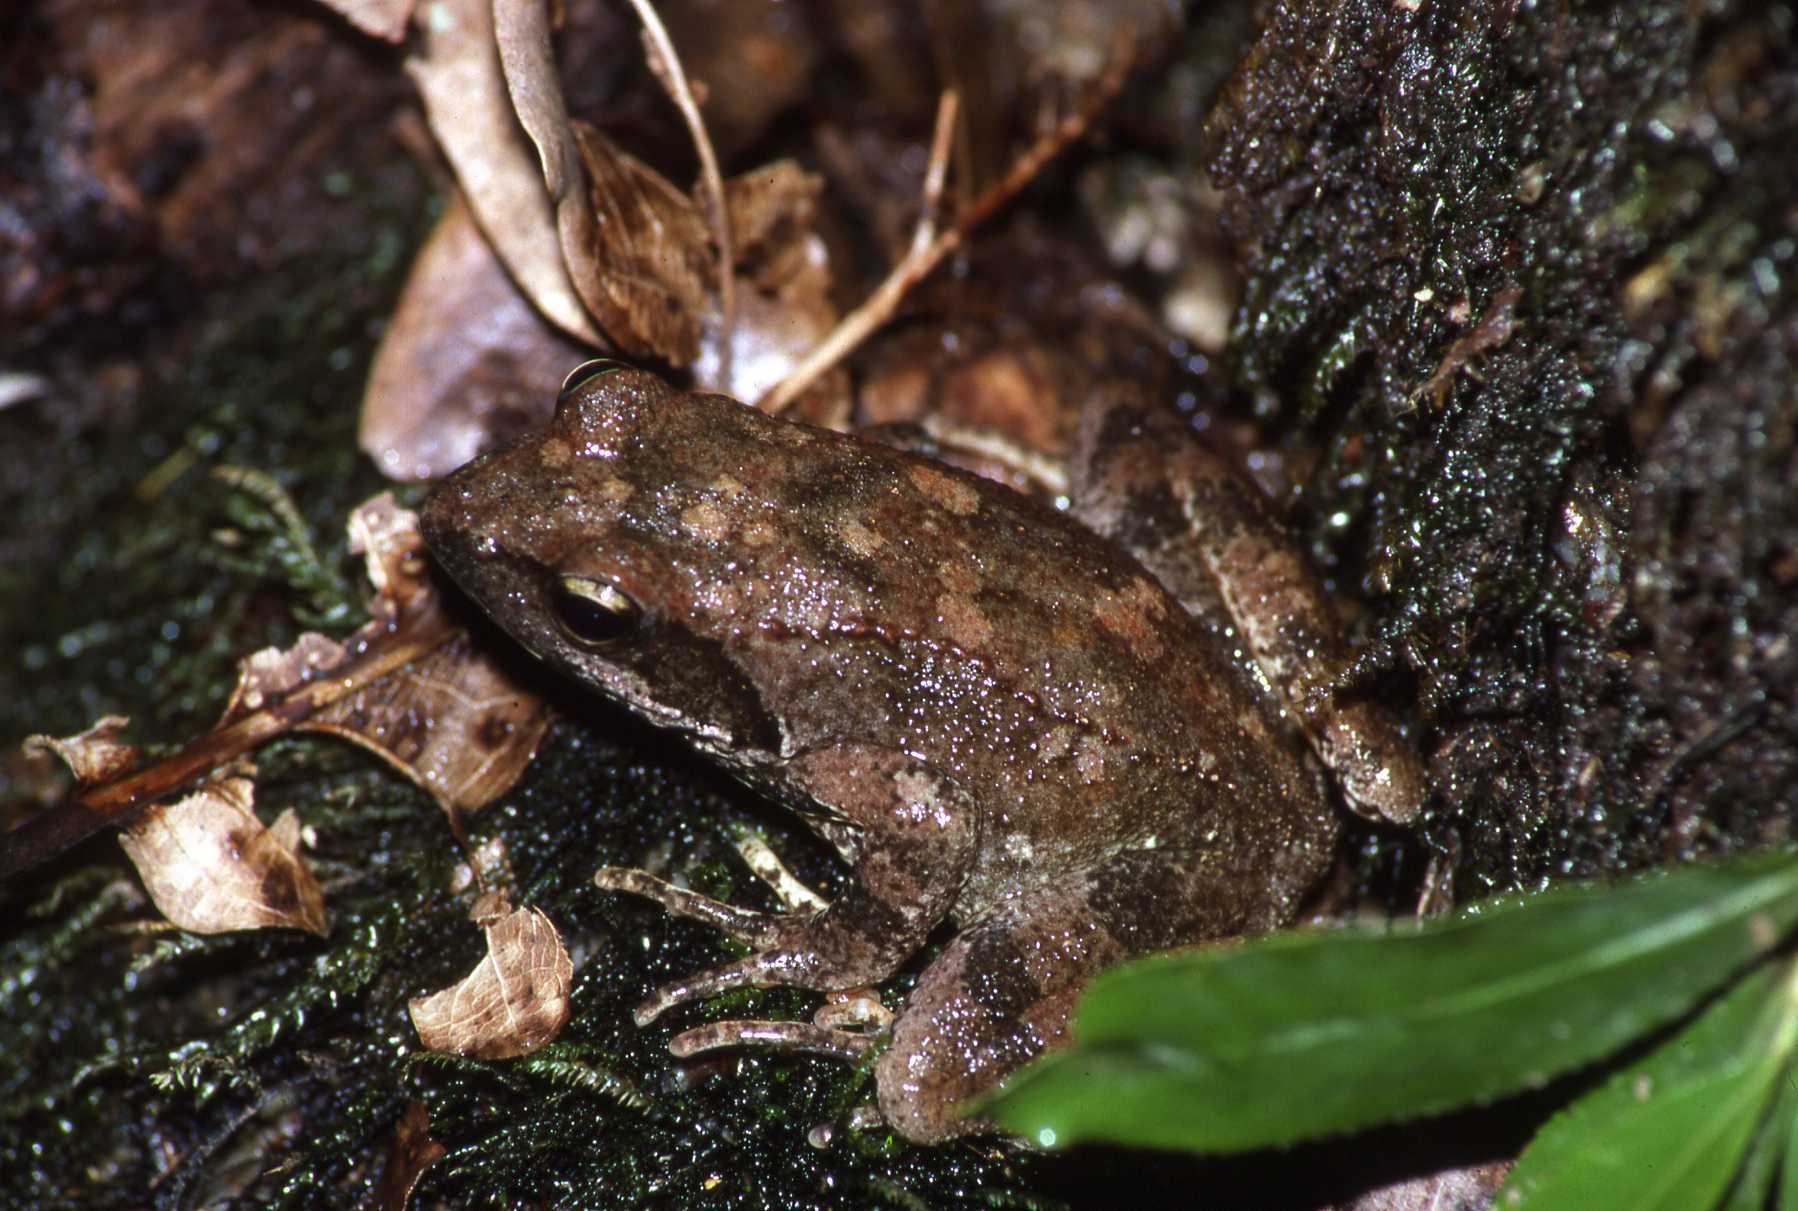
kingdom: Animalia
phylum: Chordata
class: Amphibia
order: Anura
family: Ranidae
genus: Rana
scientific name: Rana italica
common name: Italian stream frog
